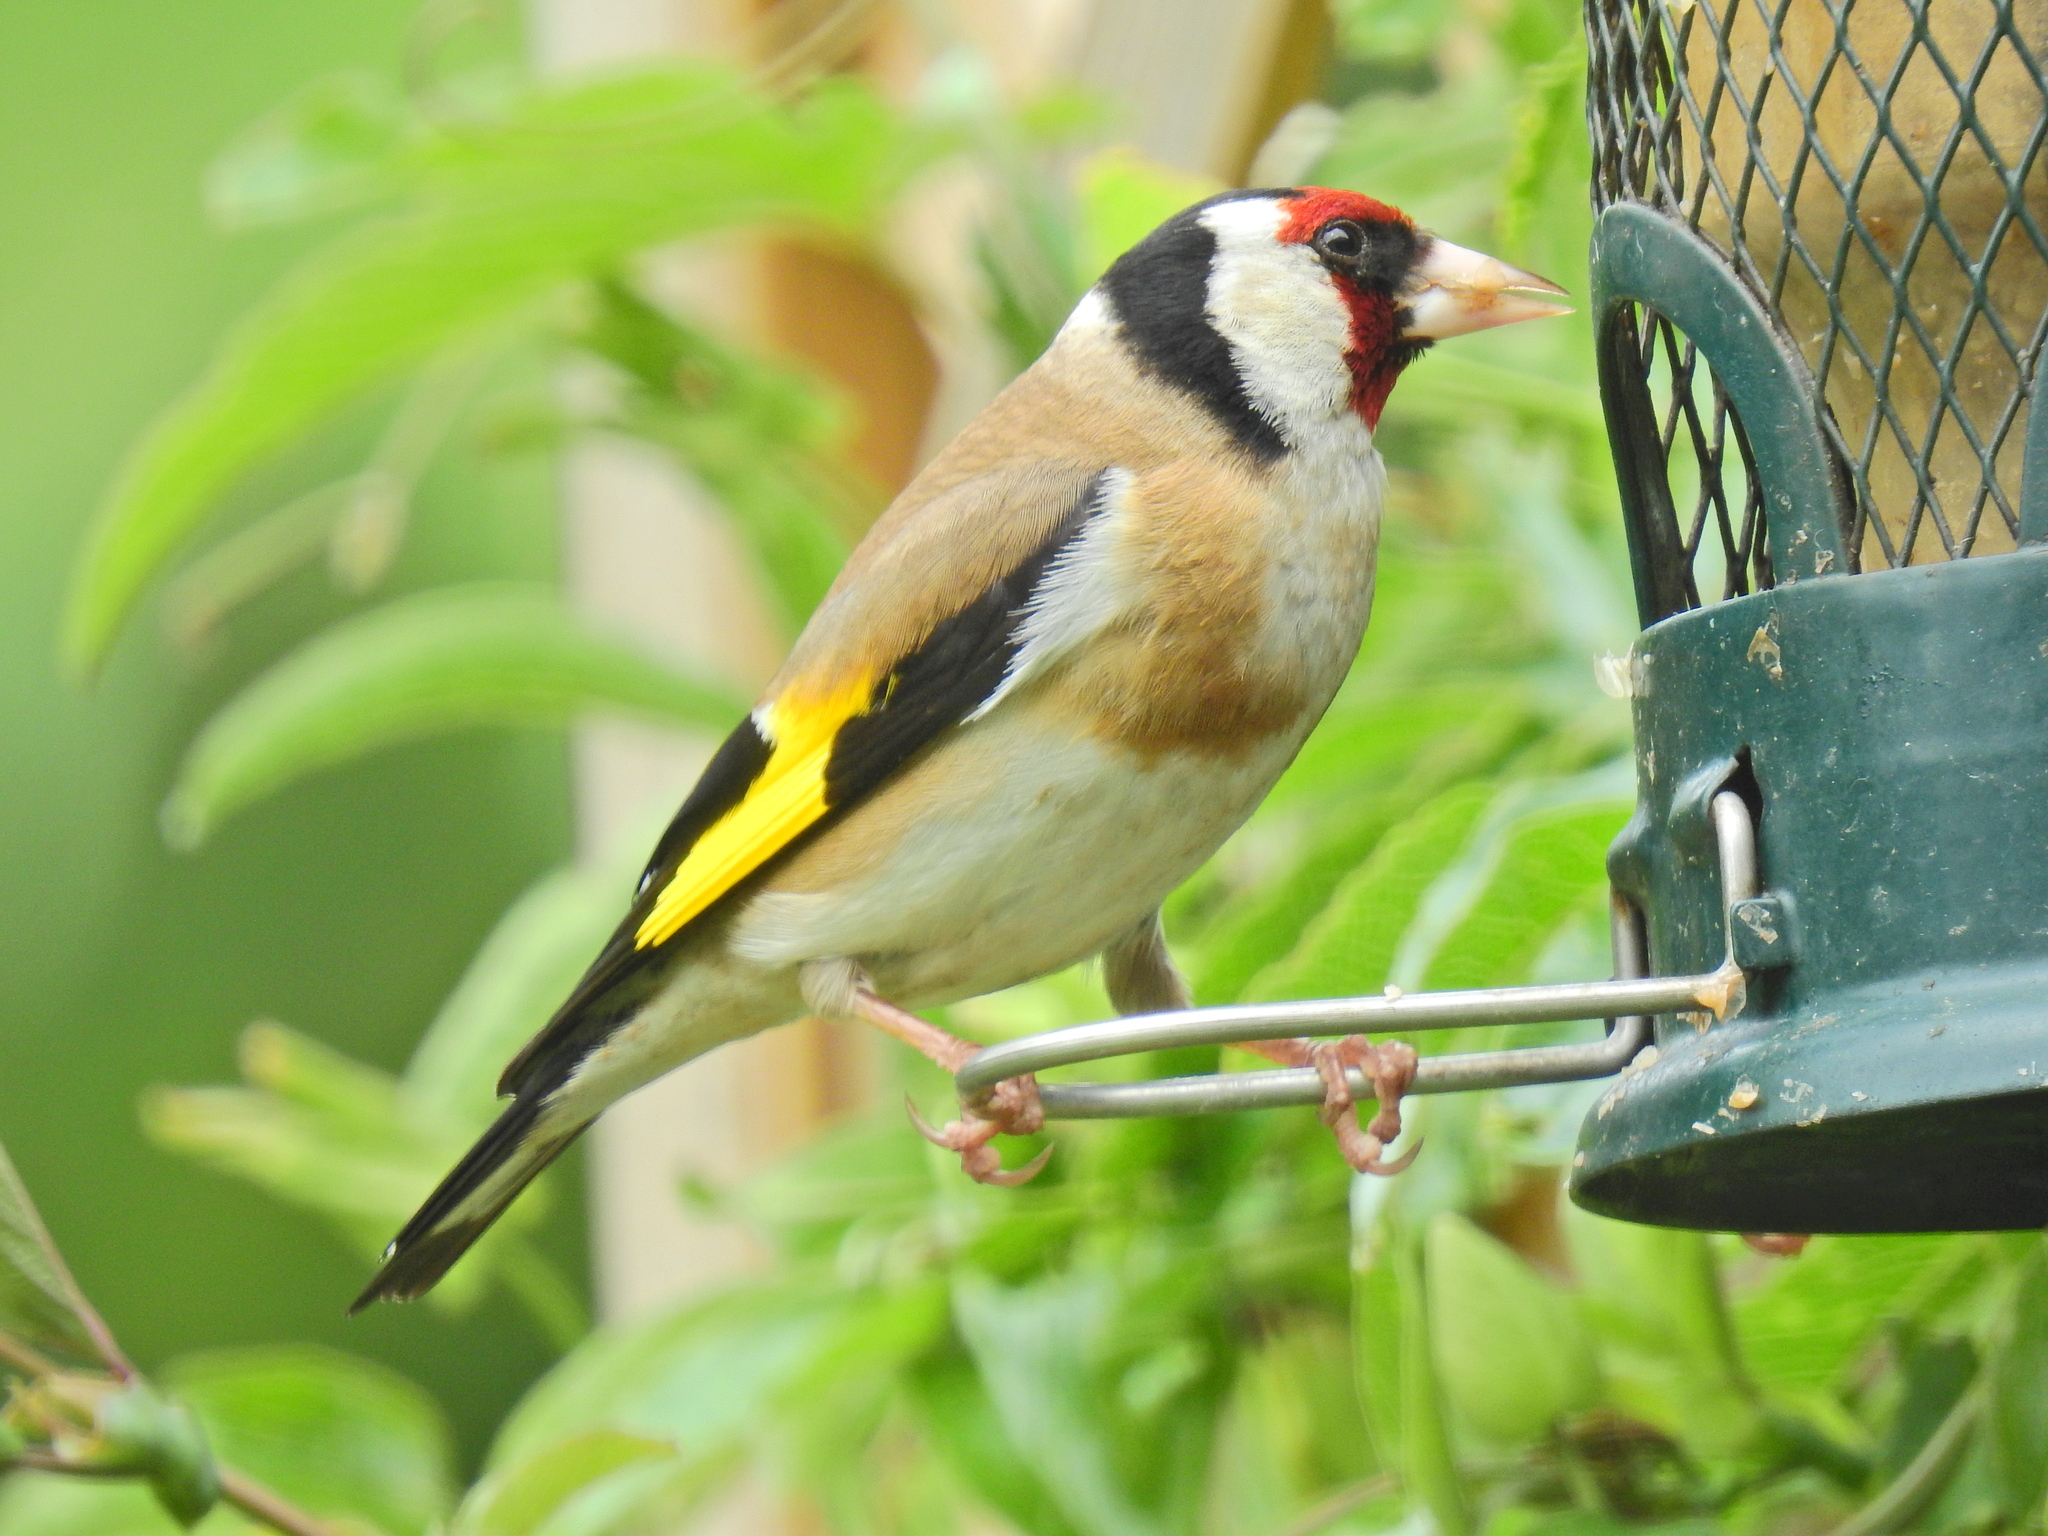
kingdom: Animalia
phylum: Chordata
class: Aves
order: Passeriformes
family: Fringillidae
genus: Carduelis
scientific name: Carduelis carduelis
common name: European goldfinch
